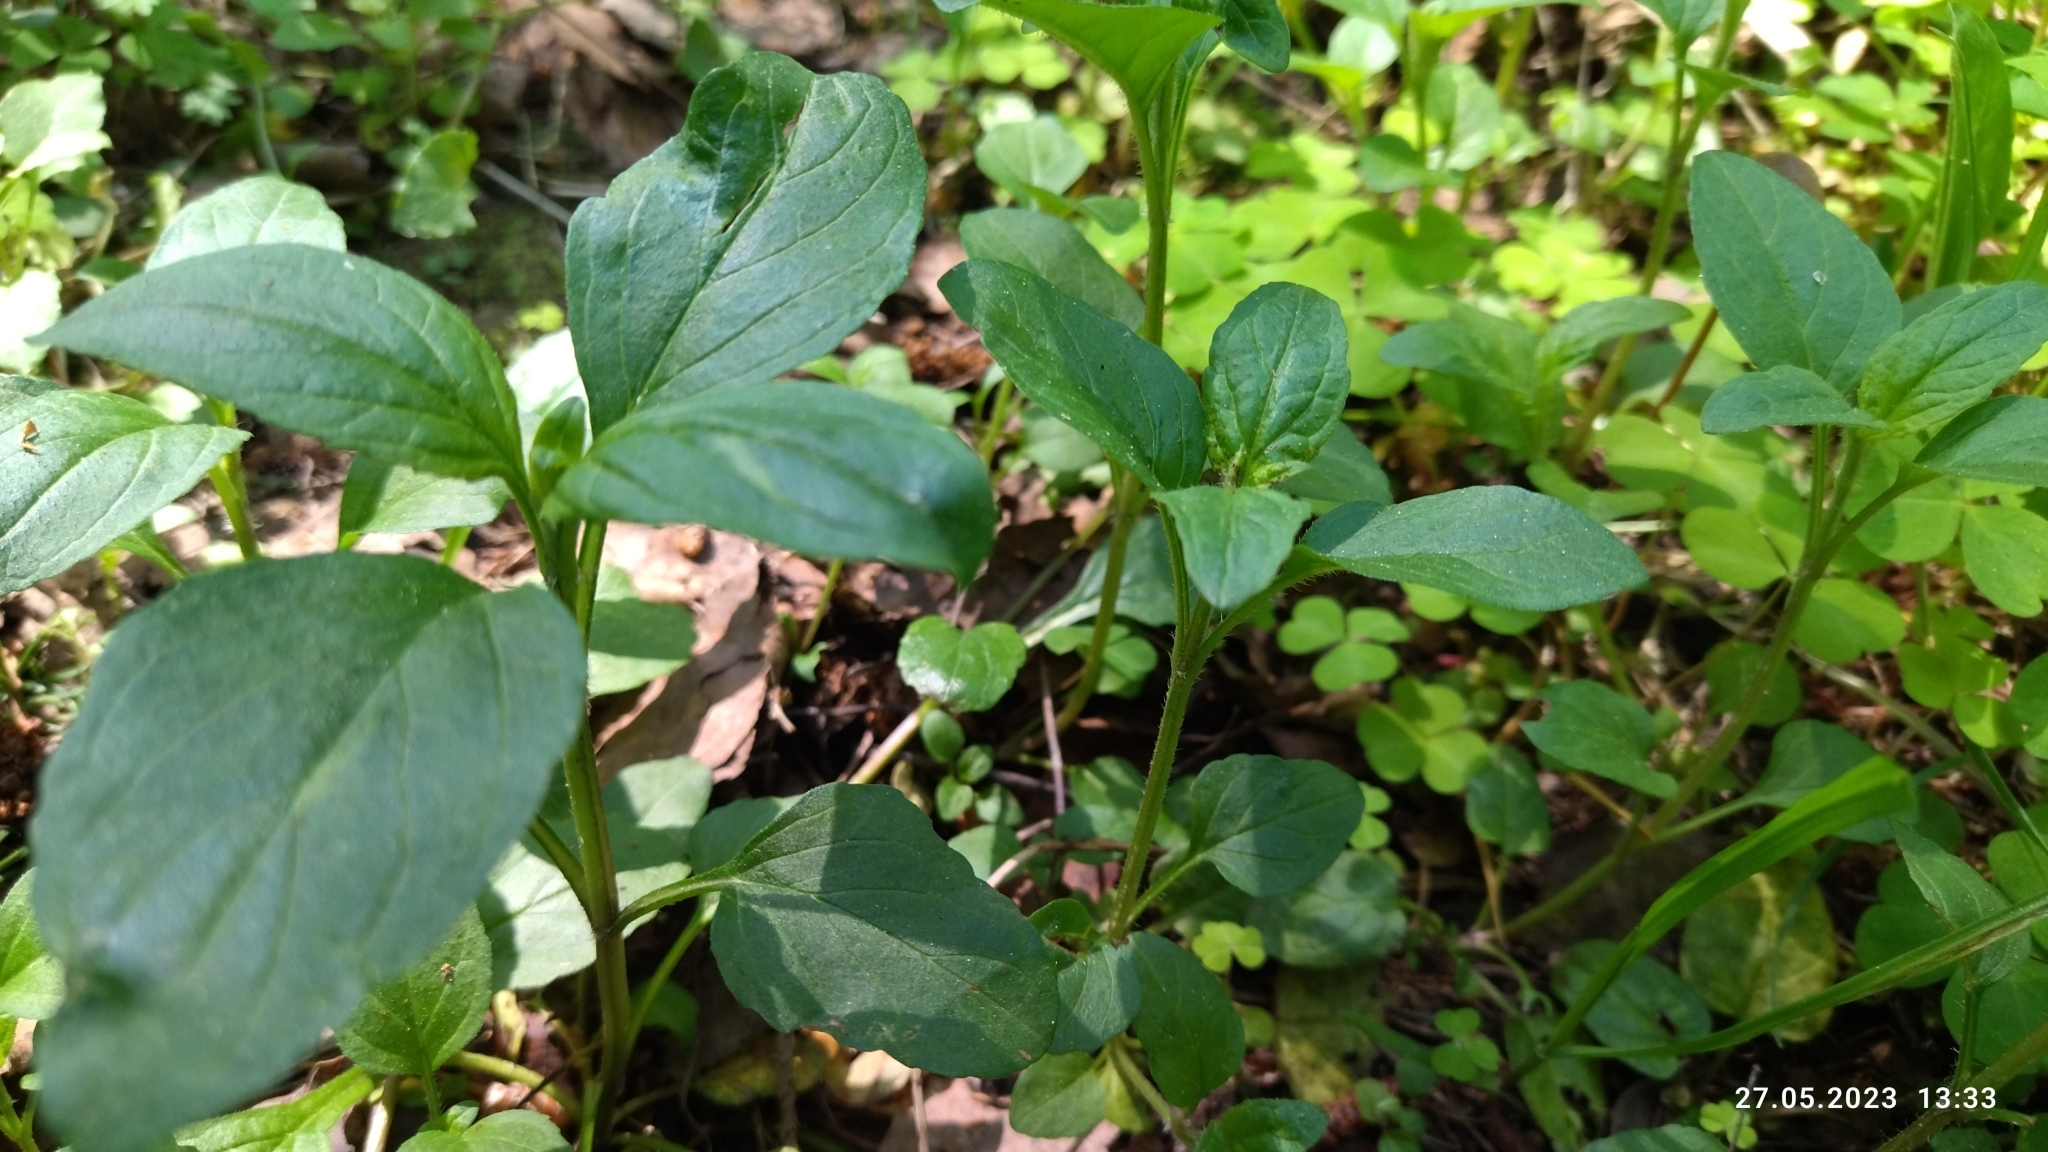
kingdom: Plantae
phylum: Tracheophyta
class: Magnoliopsida
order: Lamiales
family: Lamiaceae
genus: Prunella
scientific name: Prunella vulgaris
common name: Heal-all
